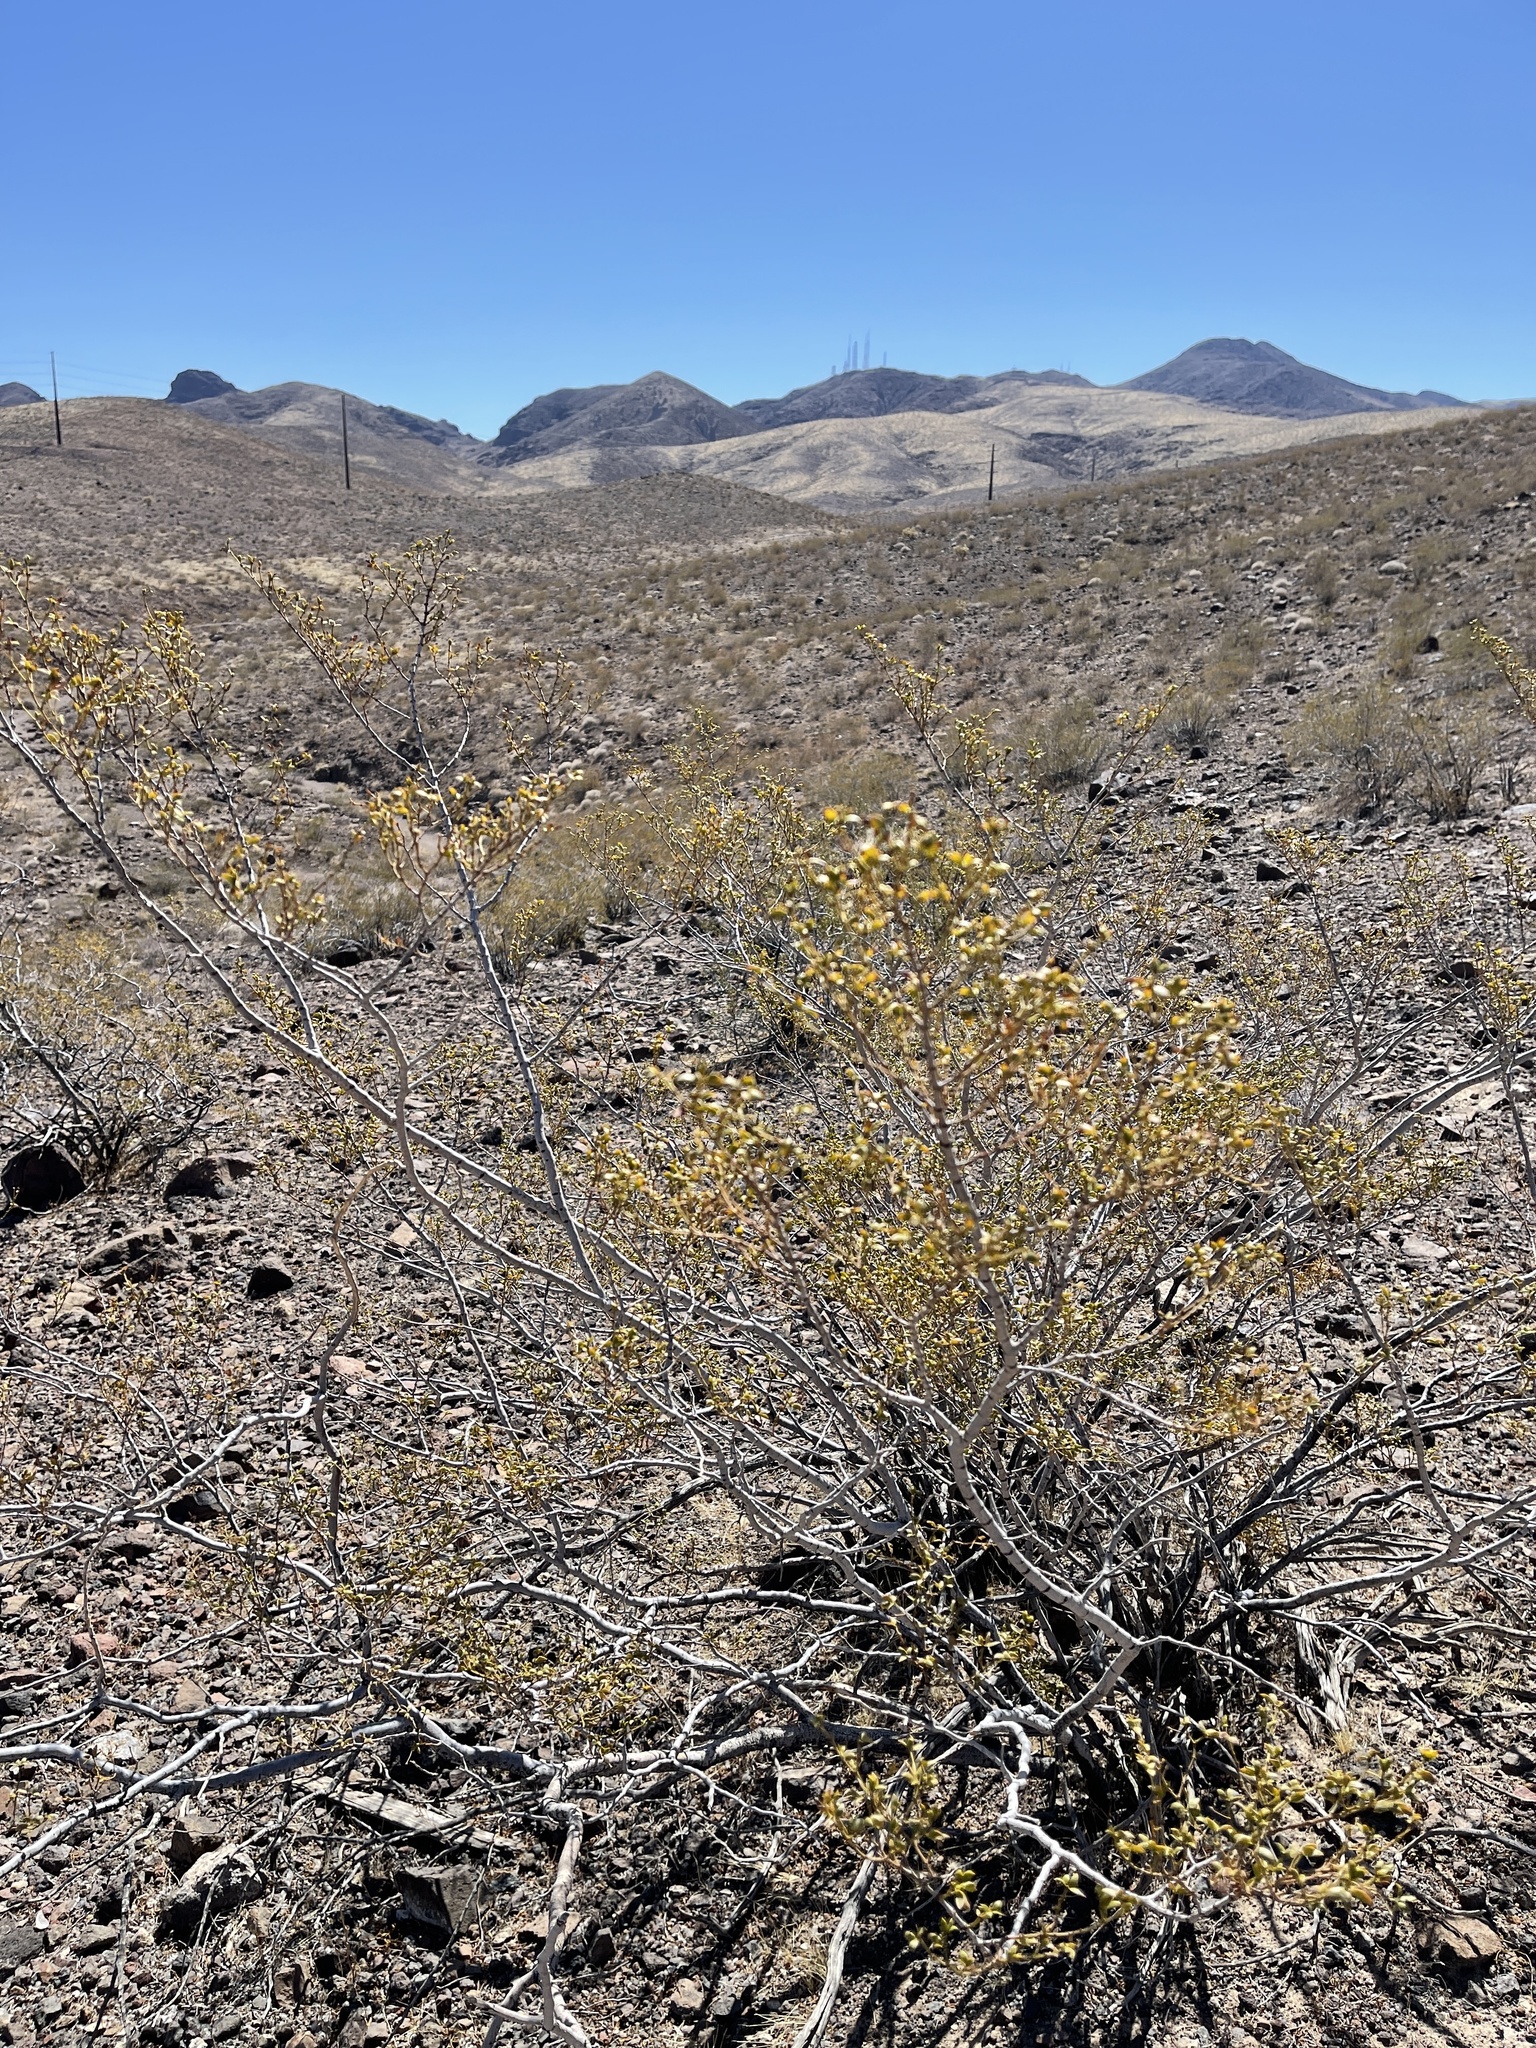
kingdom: Plantae
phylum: Tracheophyta
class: Magnoliopsida
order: Zygophyllales
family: Zygophyllaceae
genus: Larrea
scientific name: Larrea tridentata
